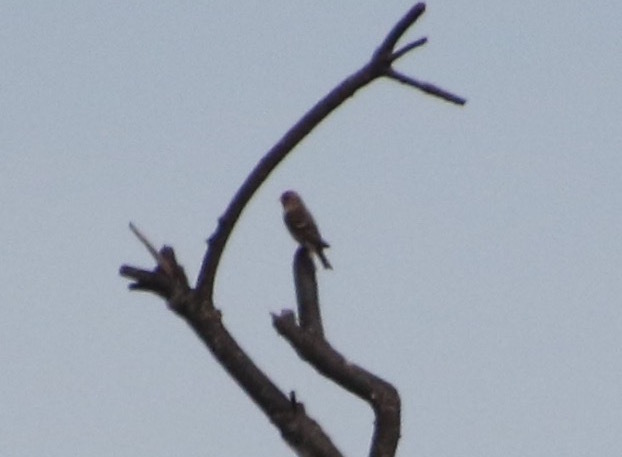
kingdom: Animalia
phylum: Chordata
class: Aves
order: Passeriformes
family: Fringillidae
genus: Acanthis
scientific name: Acanthis flammea
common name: Common redpoll
